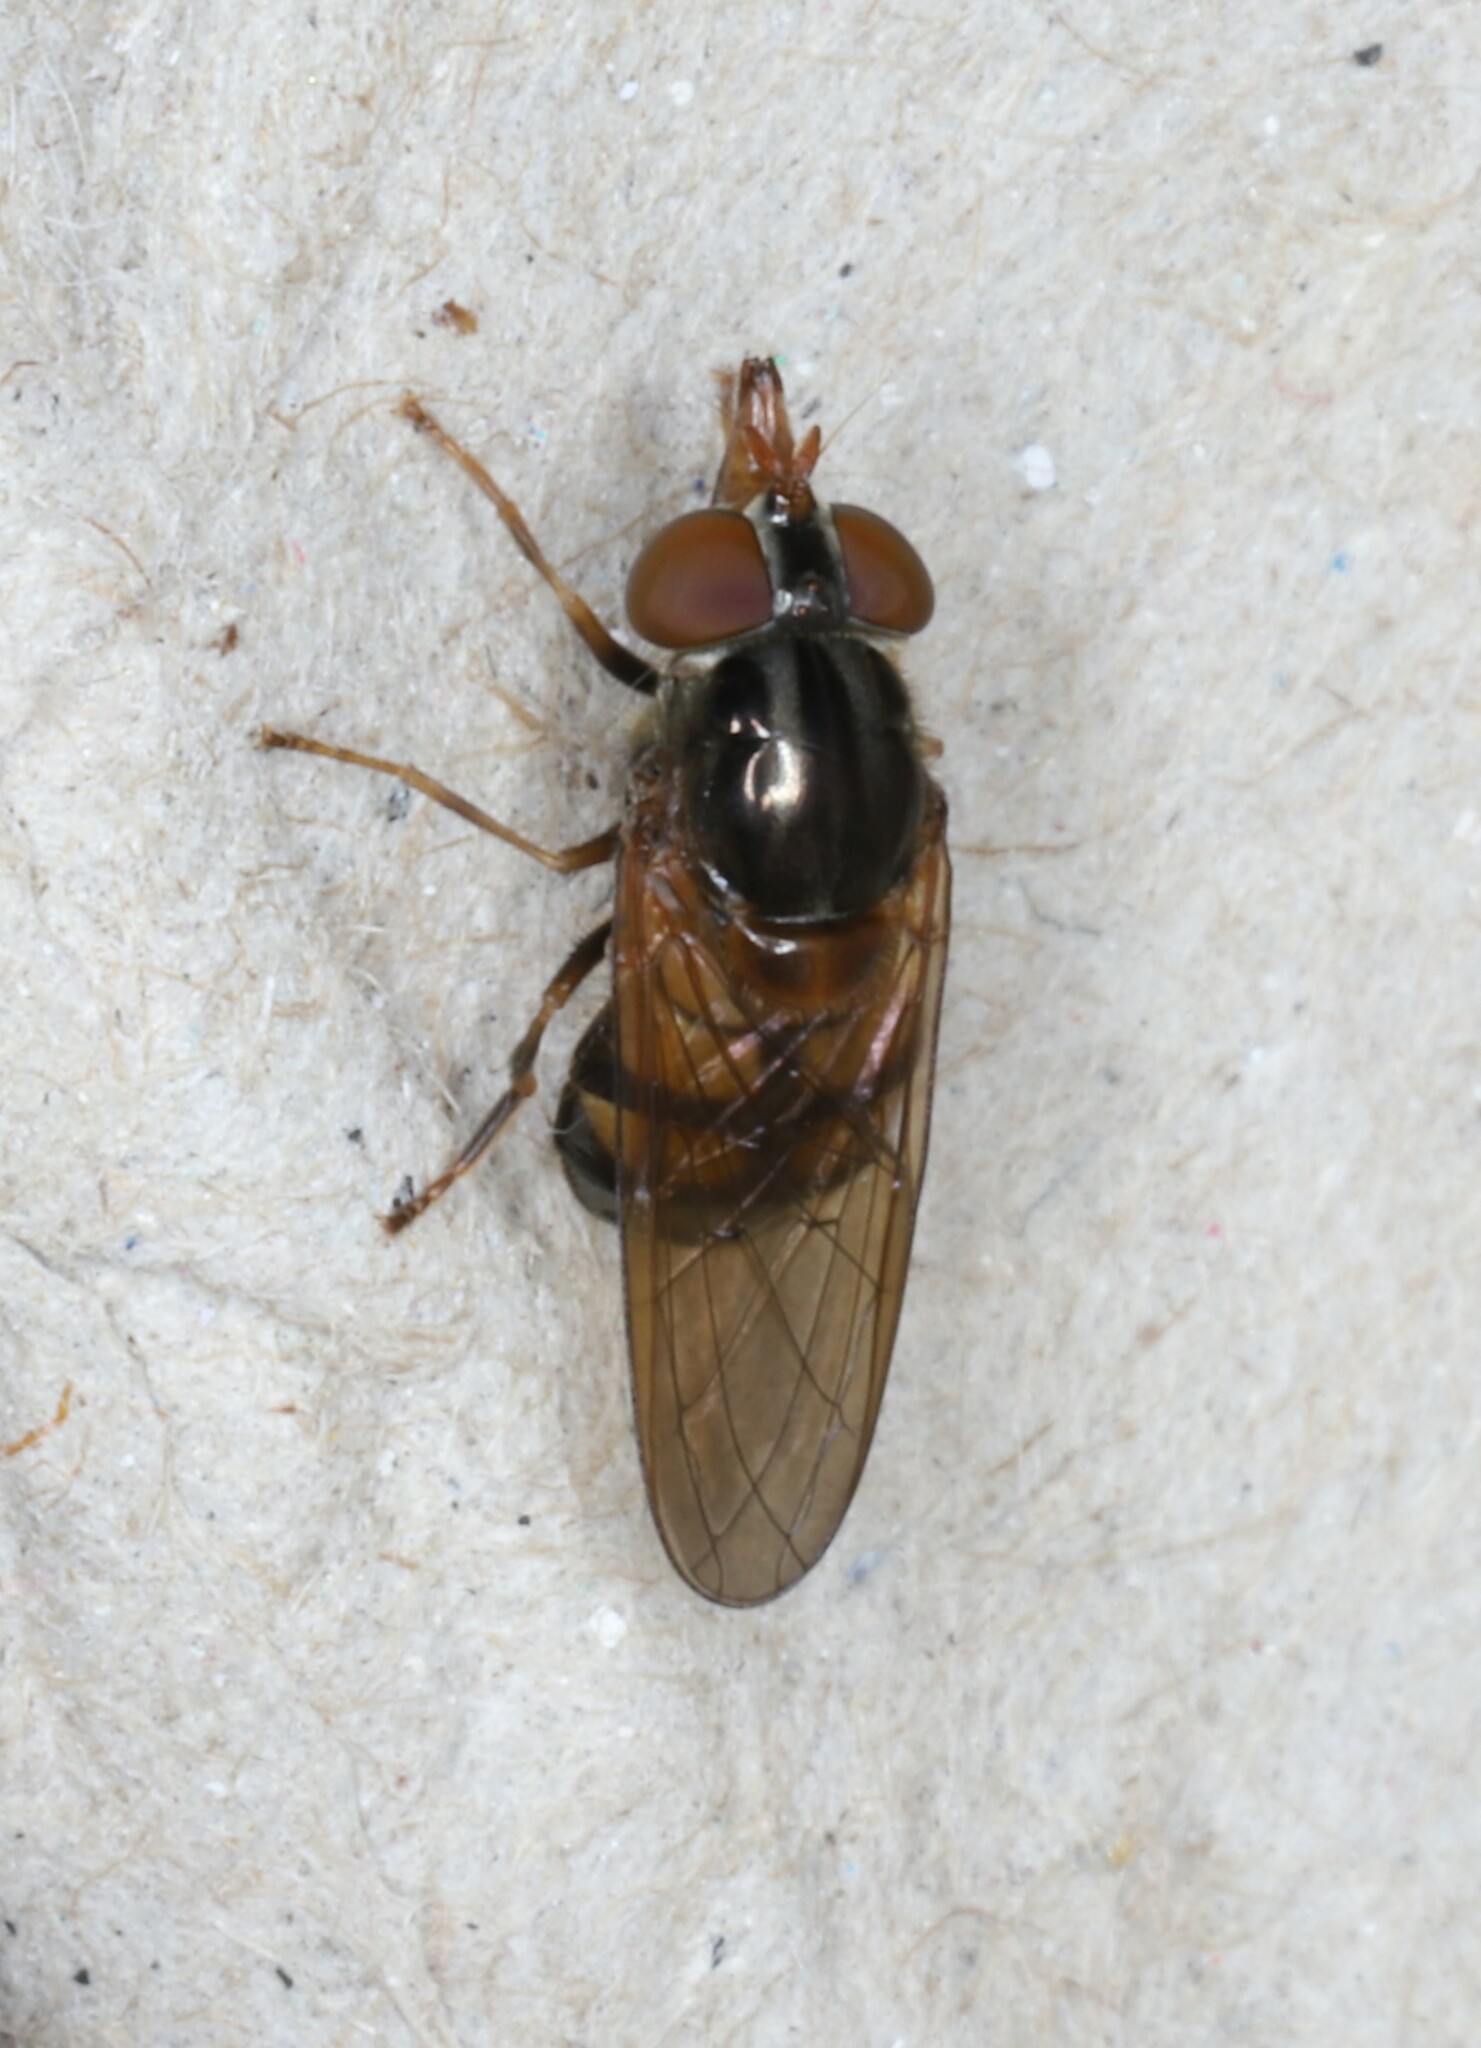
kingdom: Animalia
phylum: Arthropoda
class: Insecta
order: Diptera
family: Syrphidae
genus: Rhingia
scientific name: Rhingia nasica
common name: American snout fly
